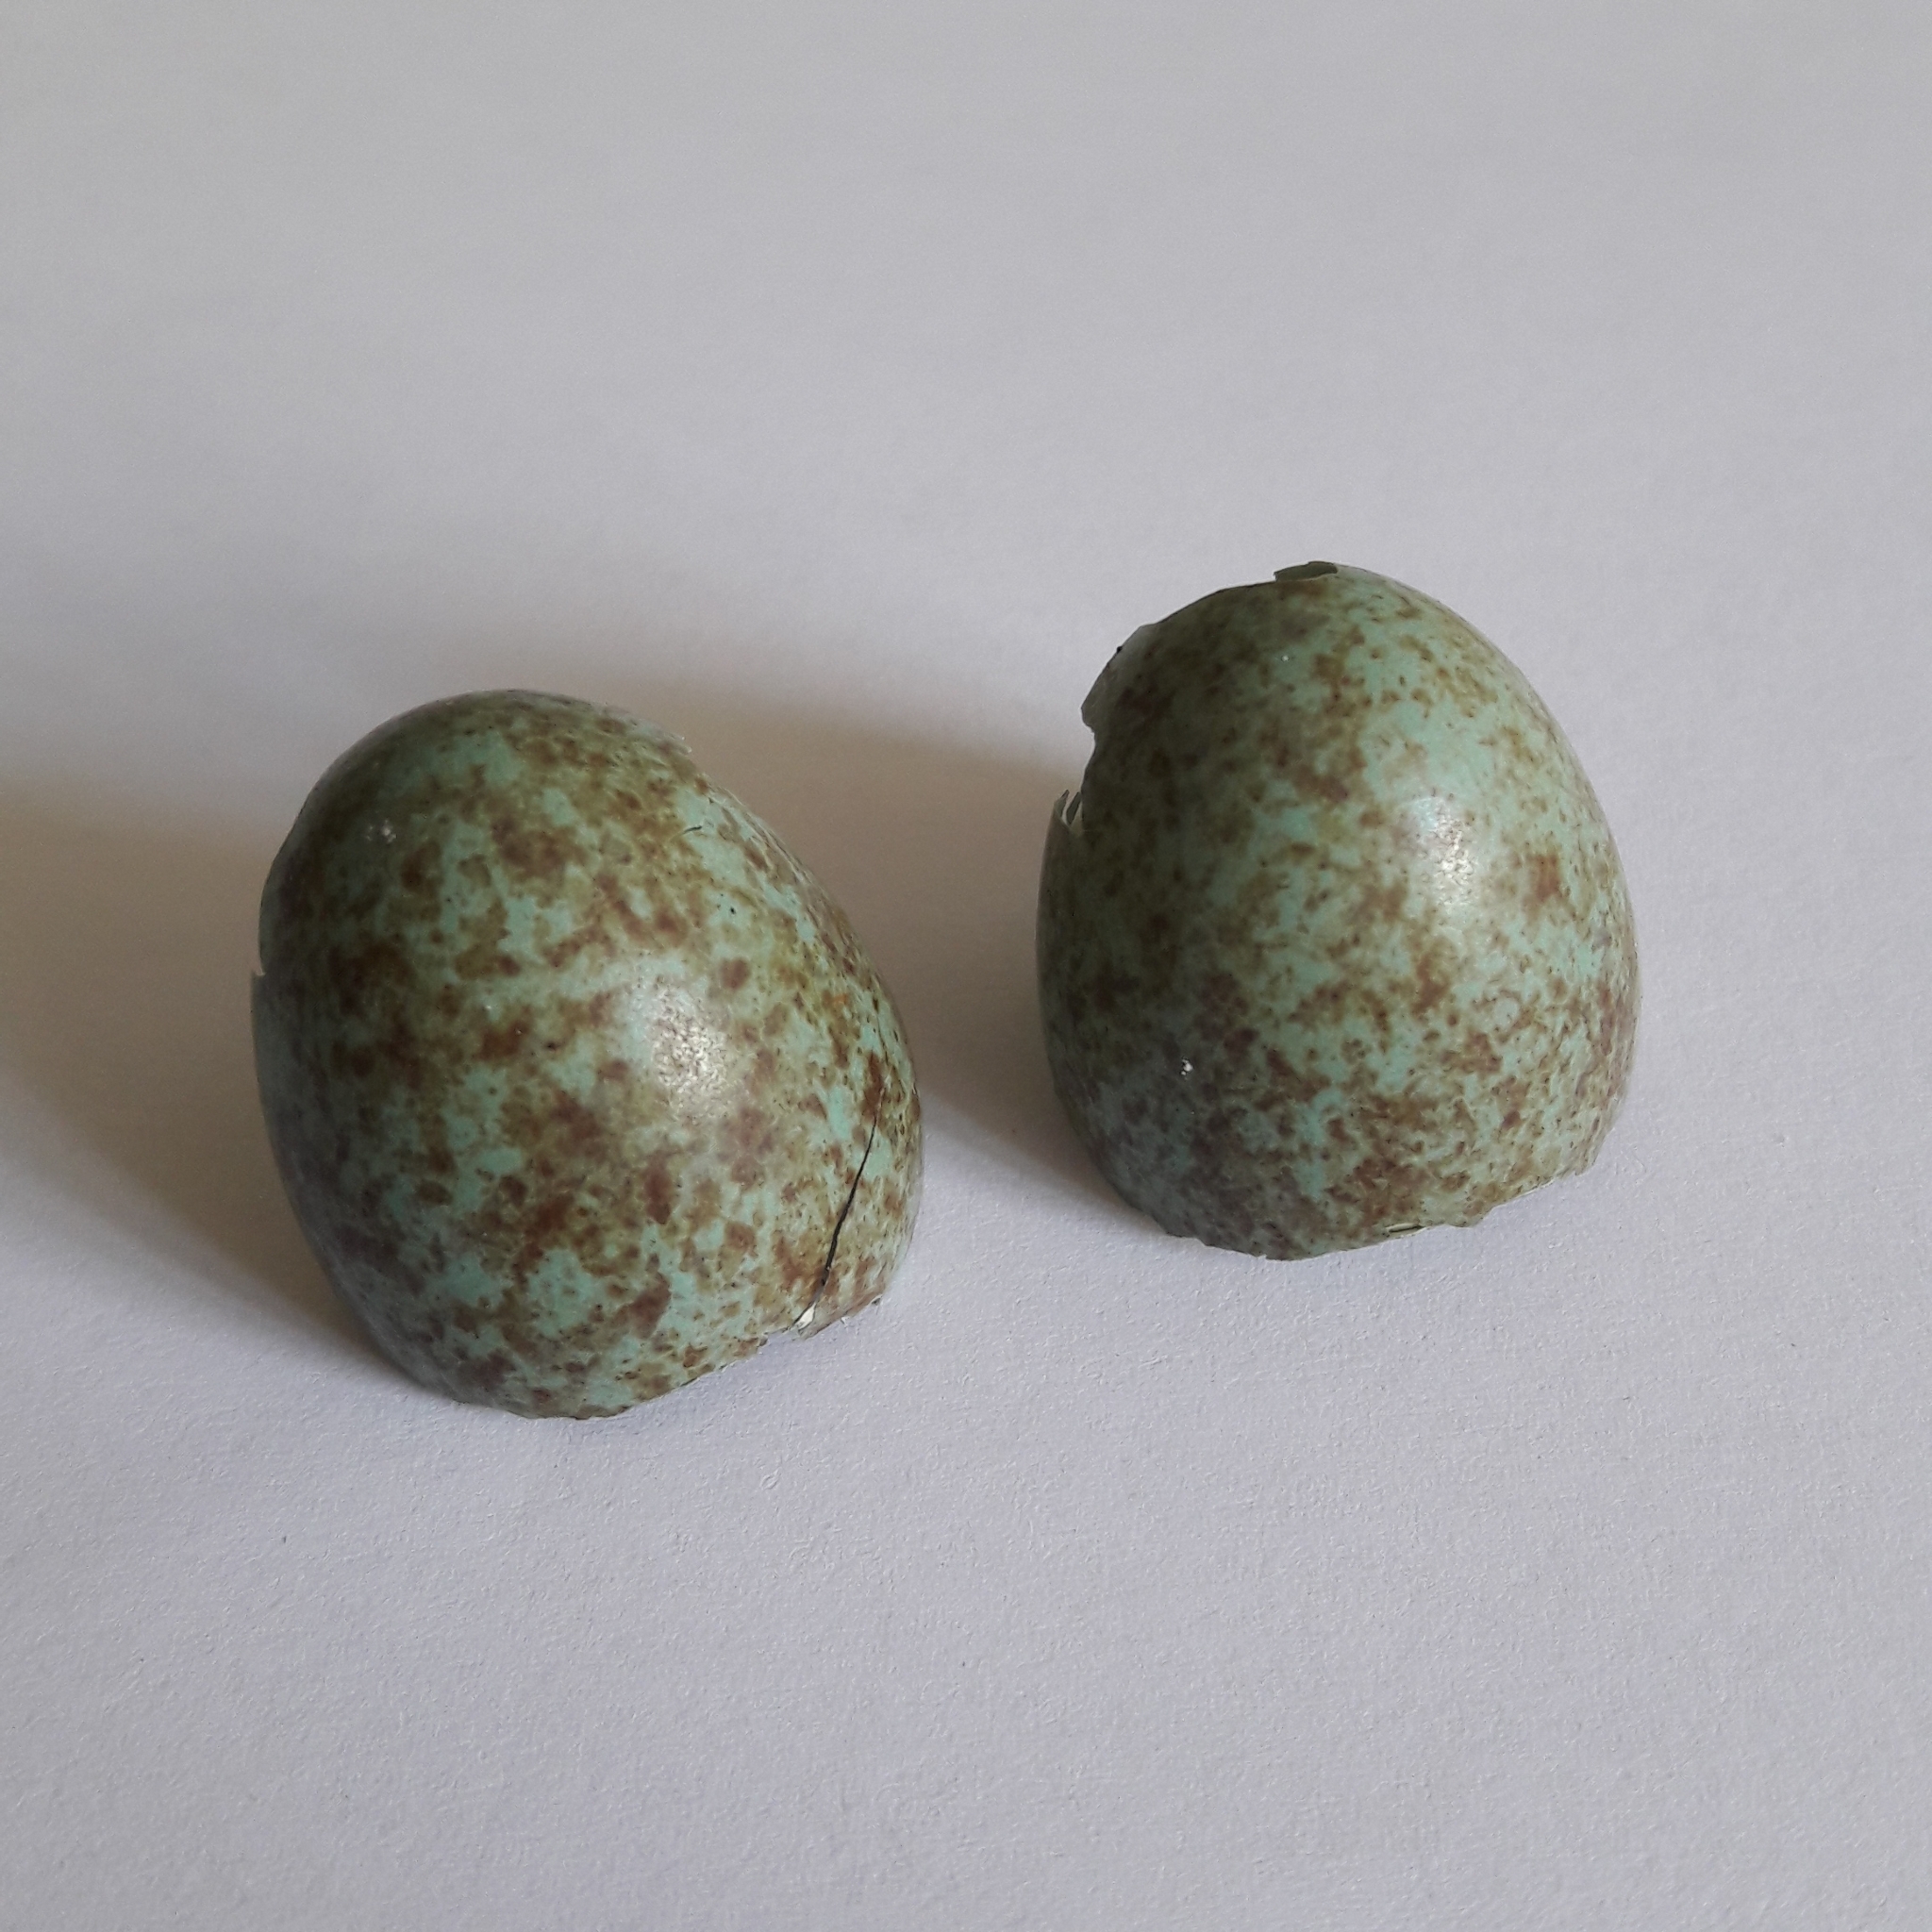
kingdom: Animalia
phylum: Chordata
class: Aves
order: Passeriformes
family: Turdidae
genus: Turdus
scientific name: Turdus merula
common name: Common blackbird
